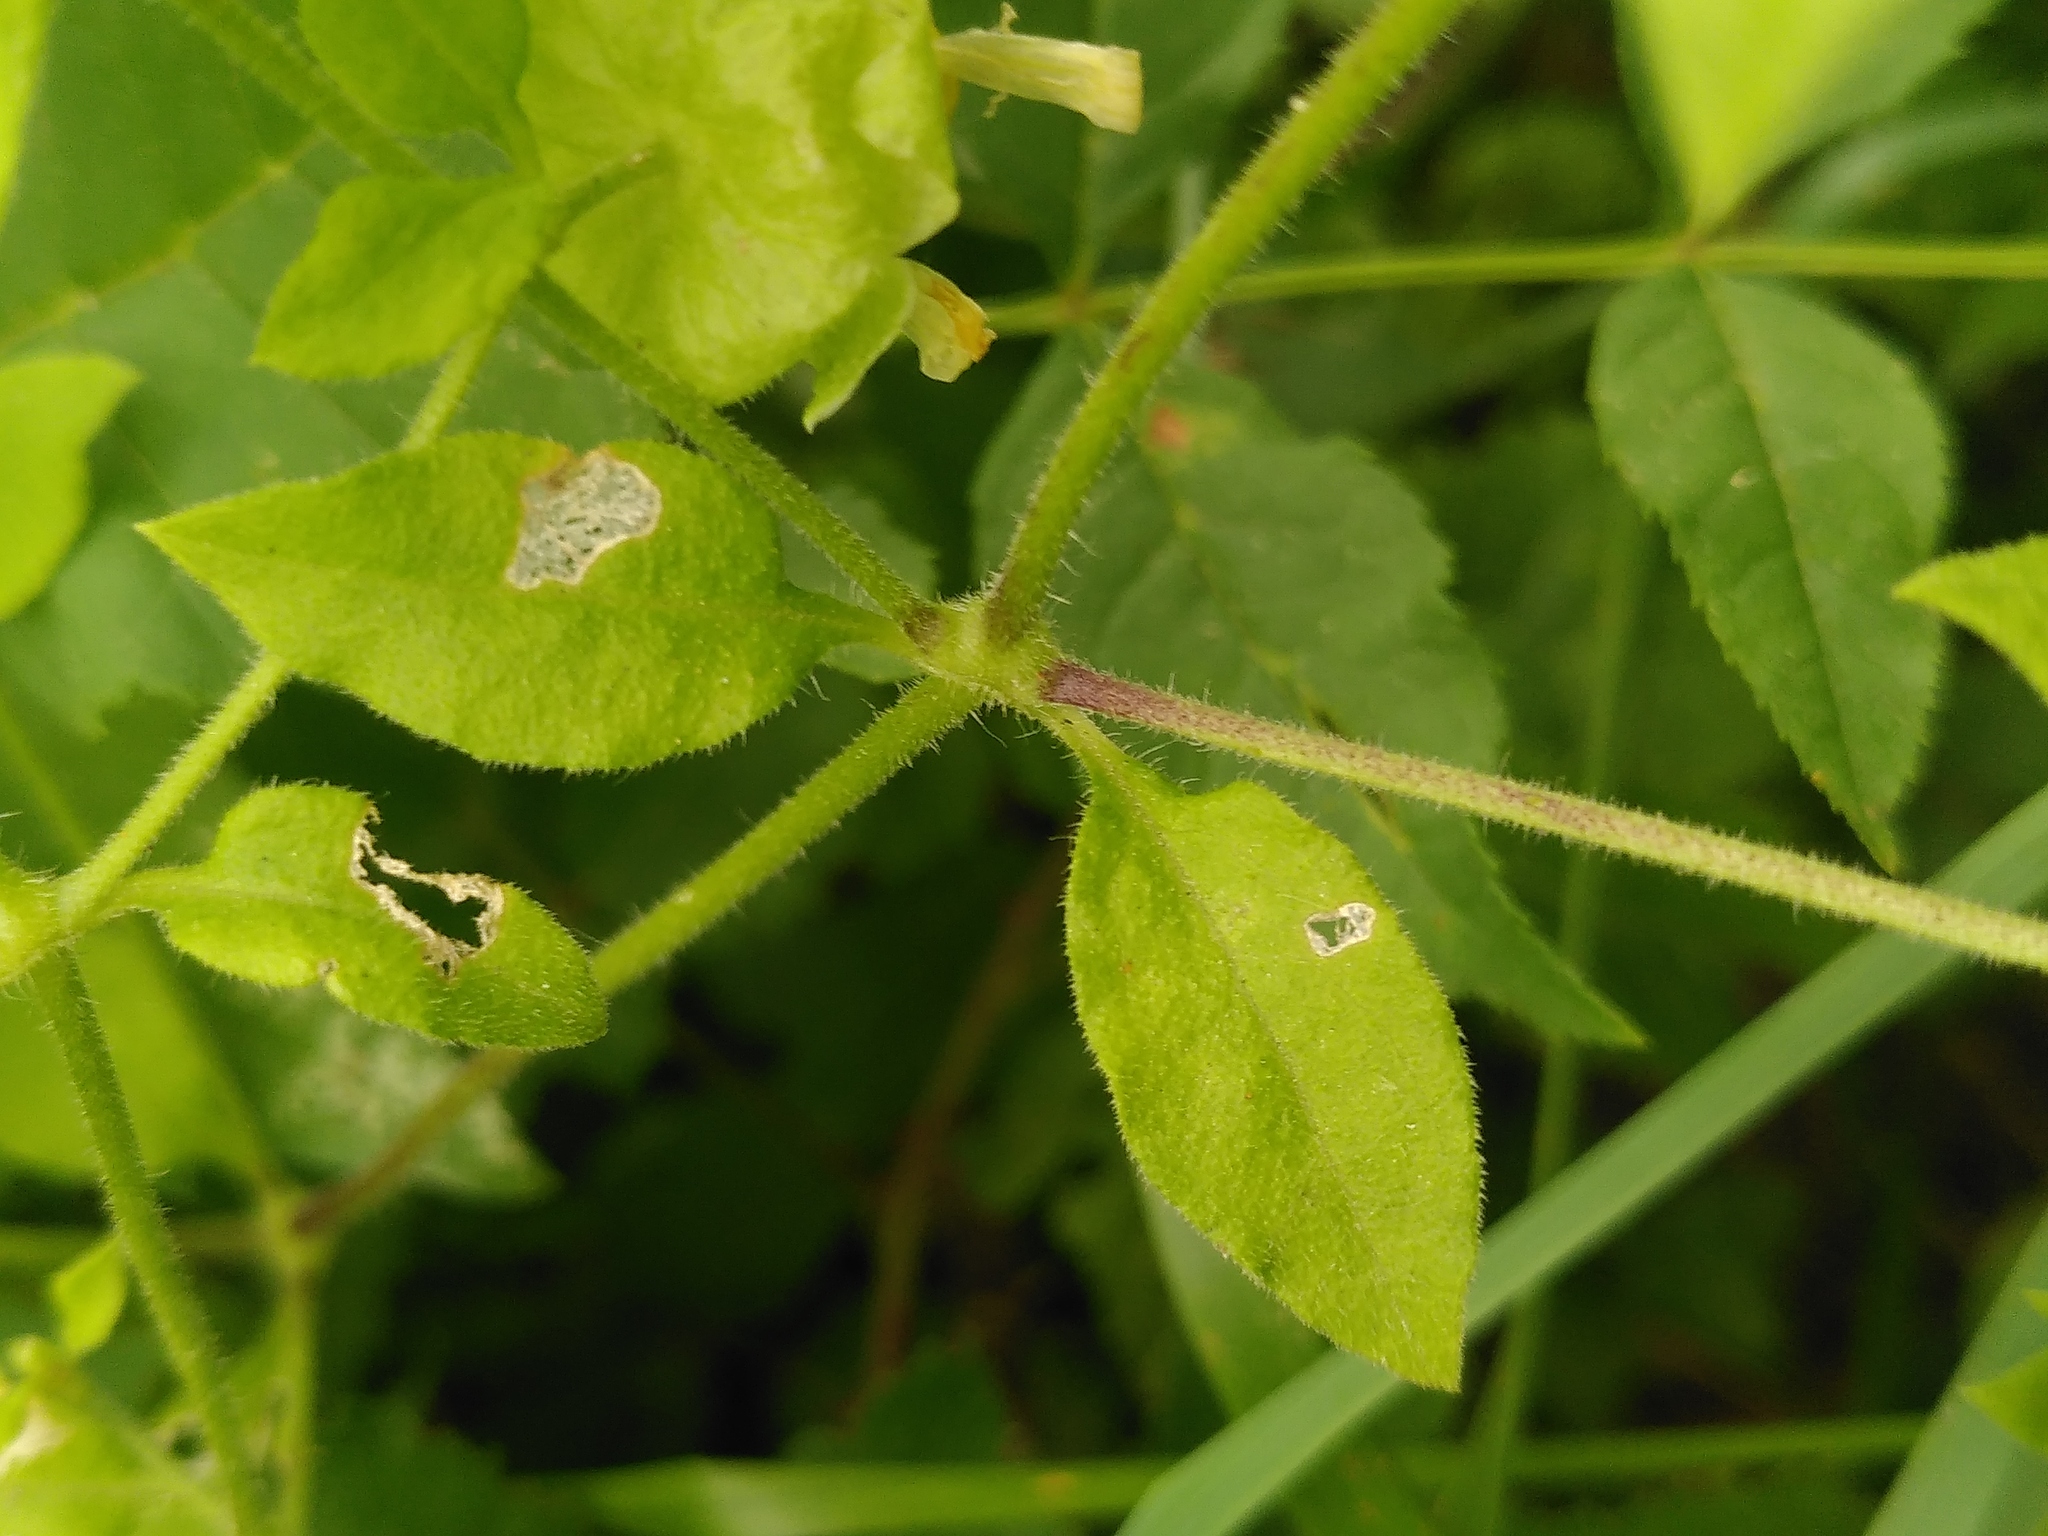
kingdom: Plantae
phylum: Tracheophyta
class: Magnoliopsida
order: Caryophyllales
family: Caryophyllaceae
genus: Silene
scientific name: Silene baccifera
